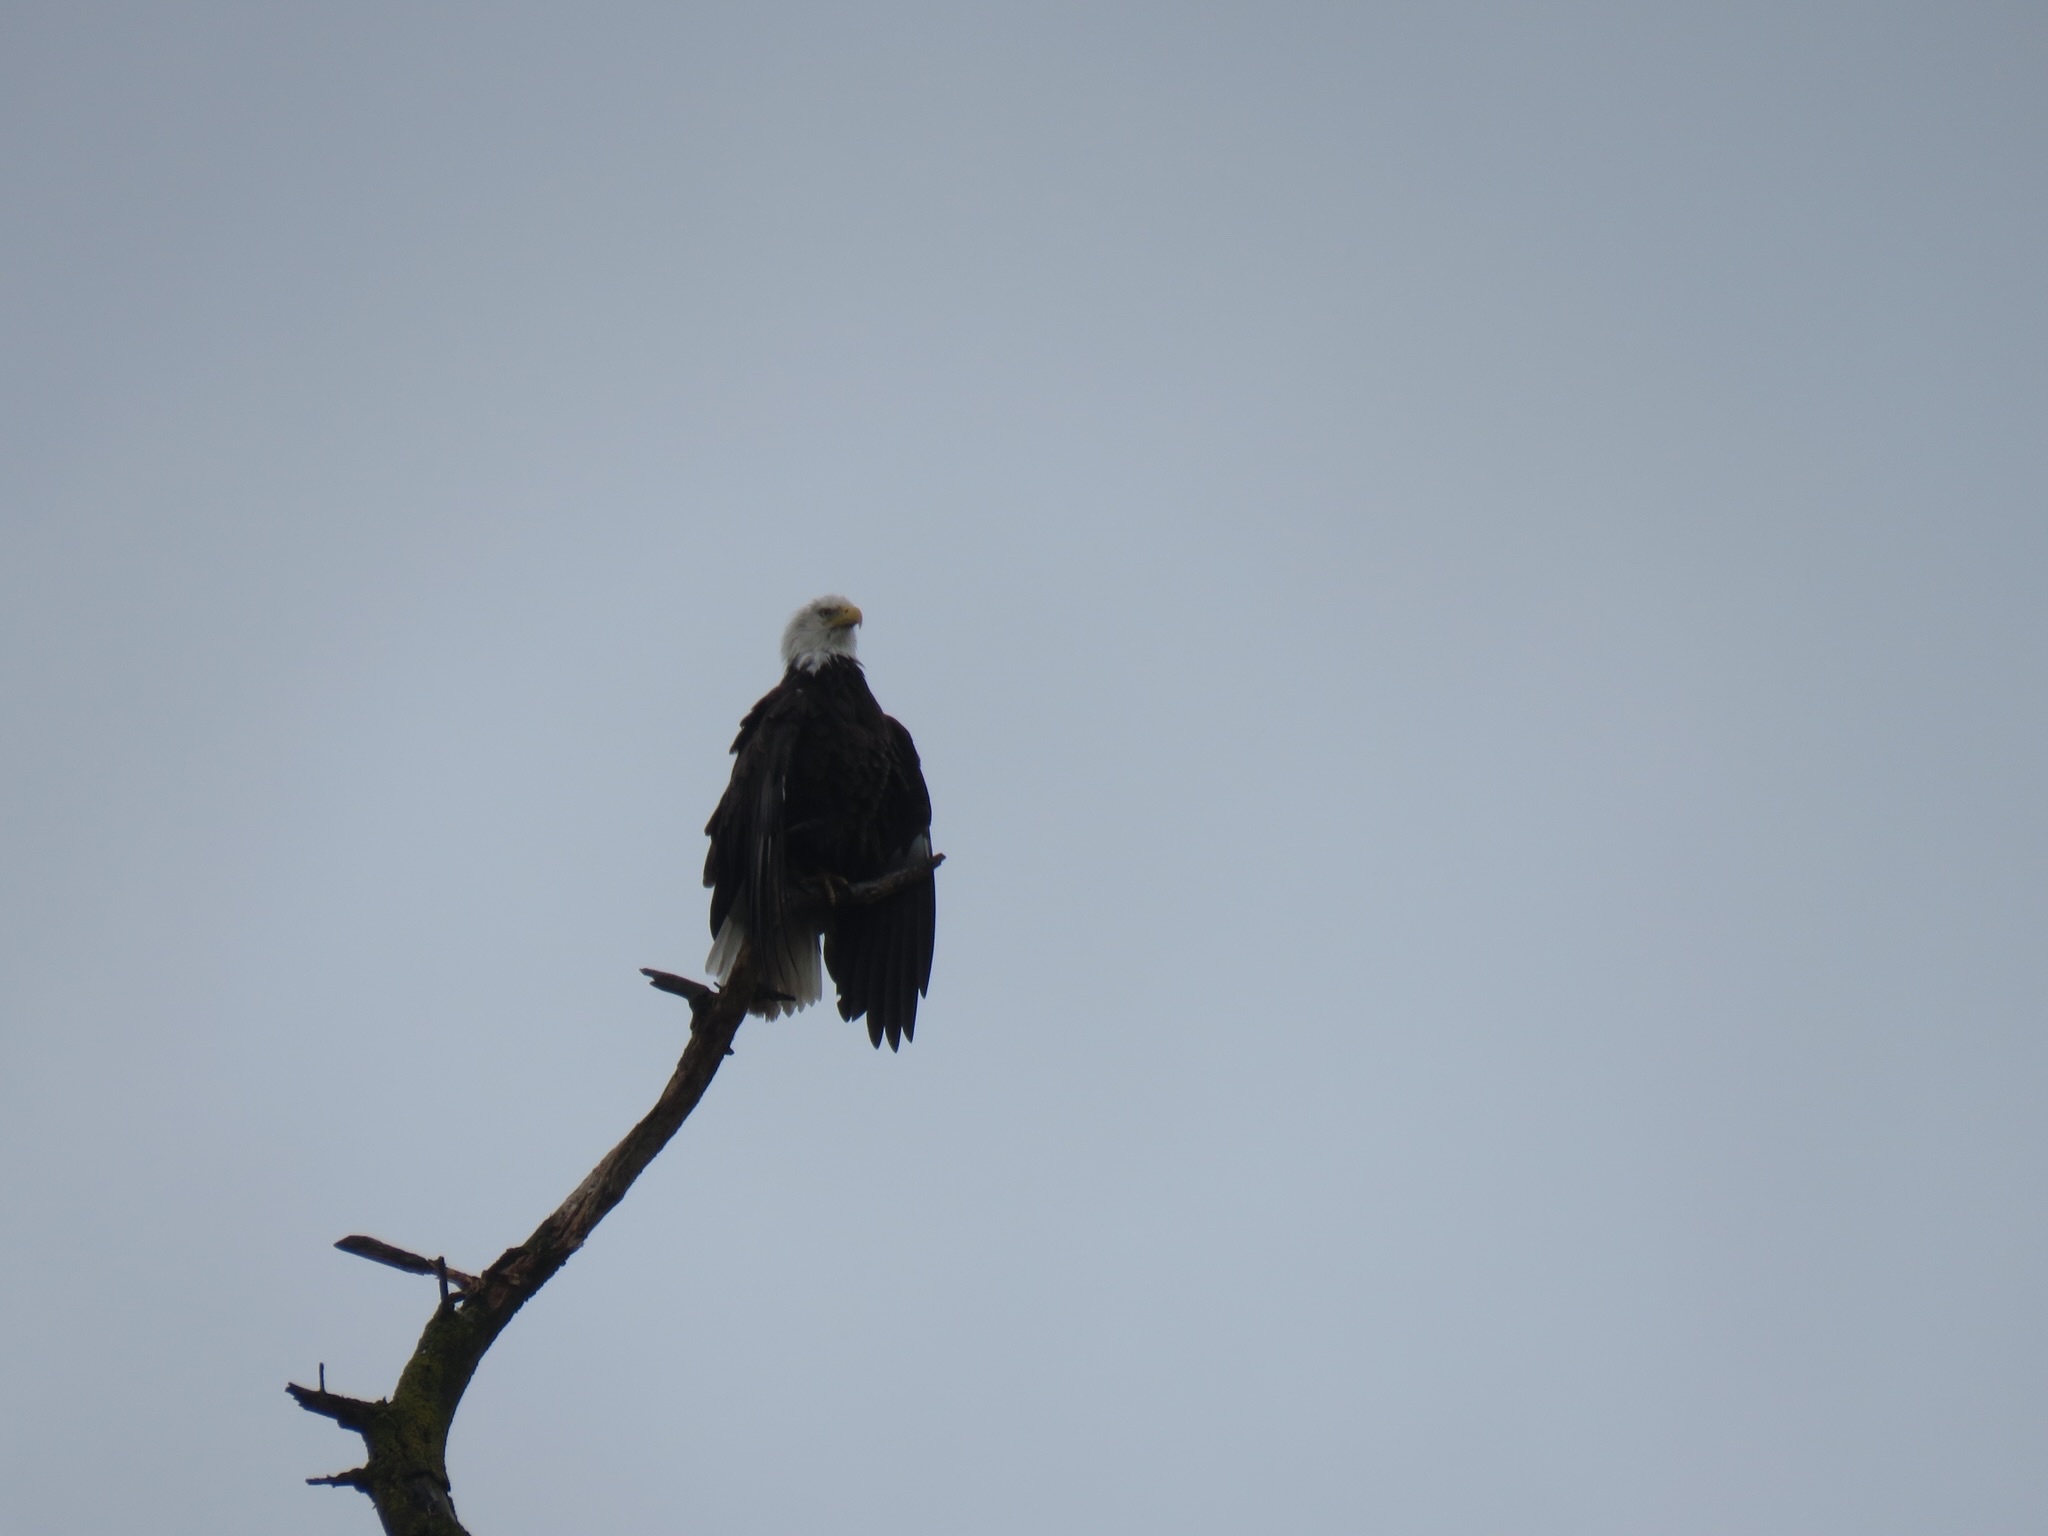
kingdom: Animalia
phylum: Chordata
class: Aves
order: Accipitriformes
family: Accipitridae
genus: Haliaeetus
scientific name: Haliaeetus leucocephalus
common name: Bald eagle
